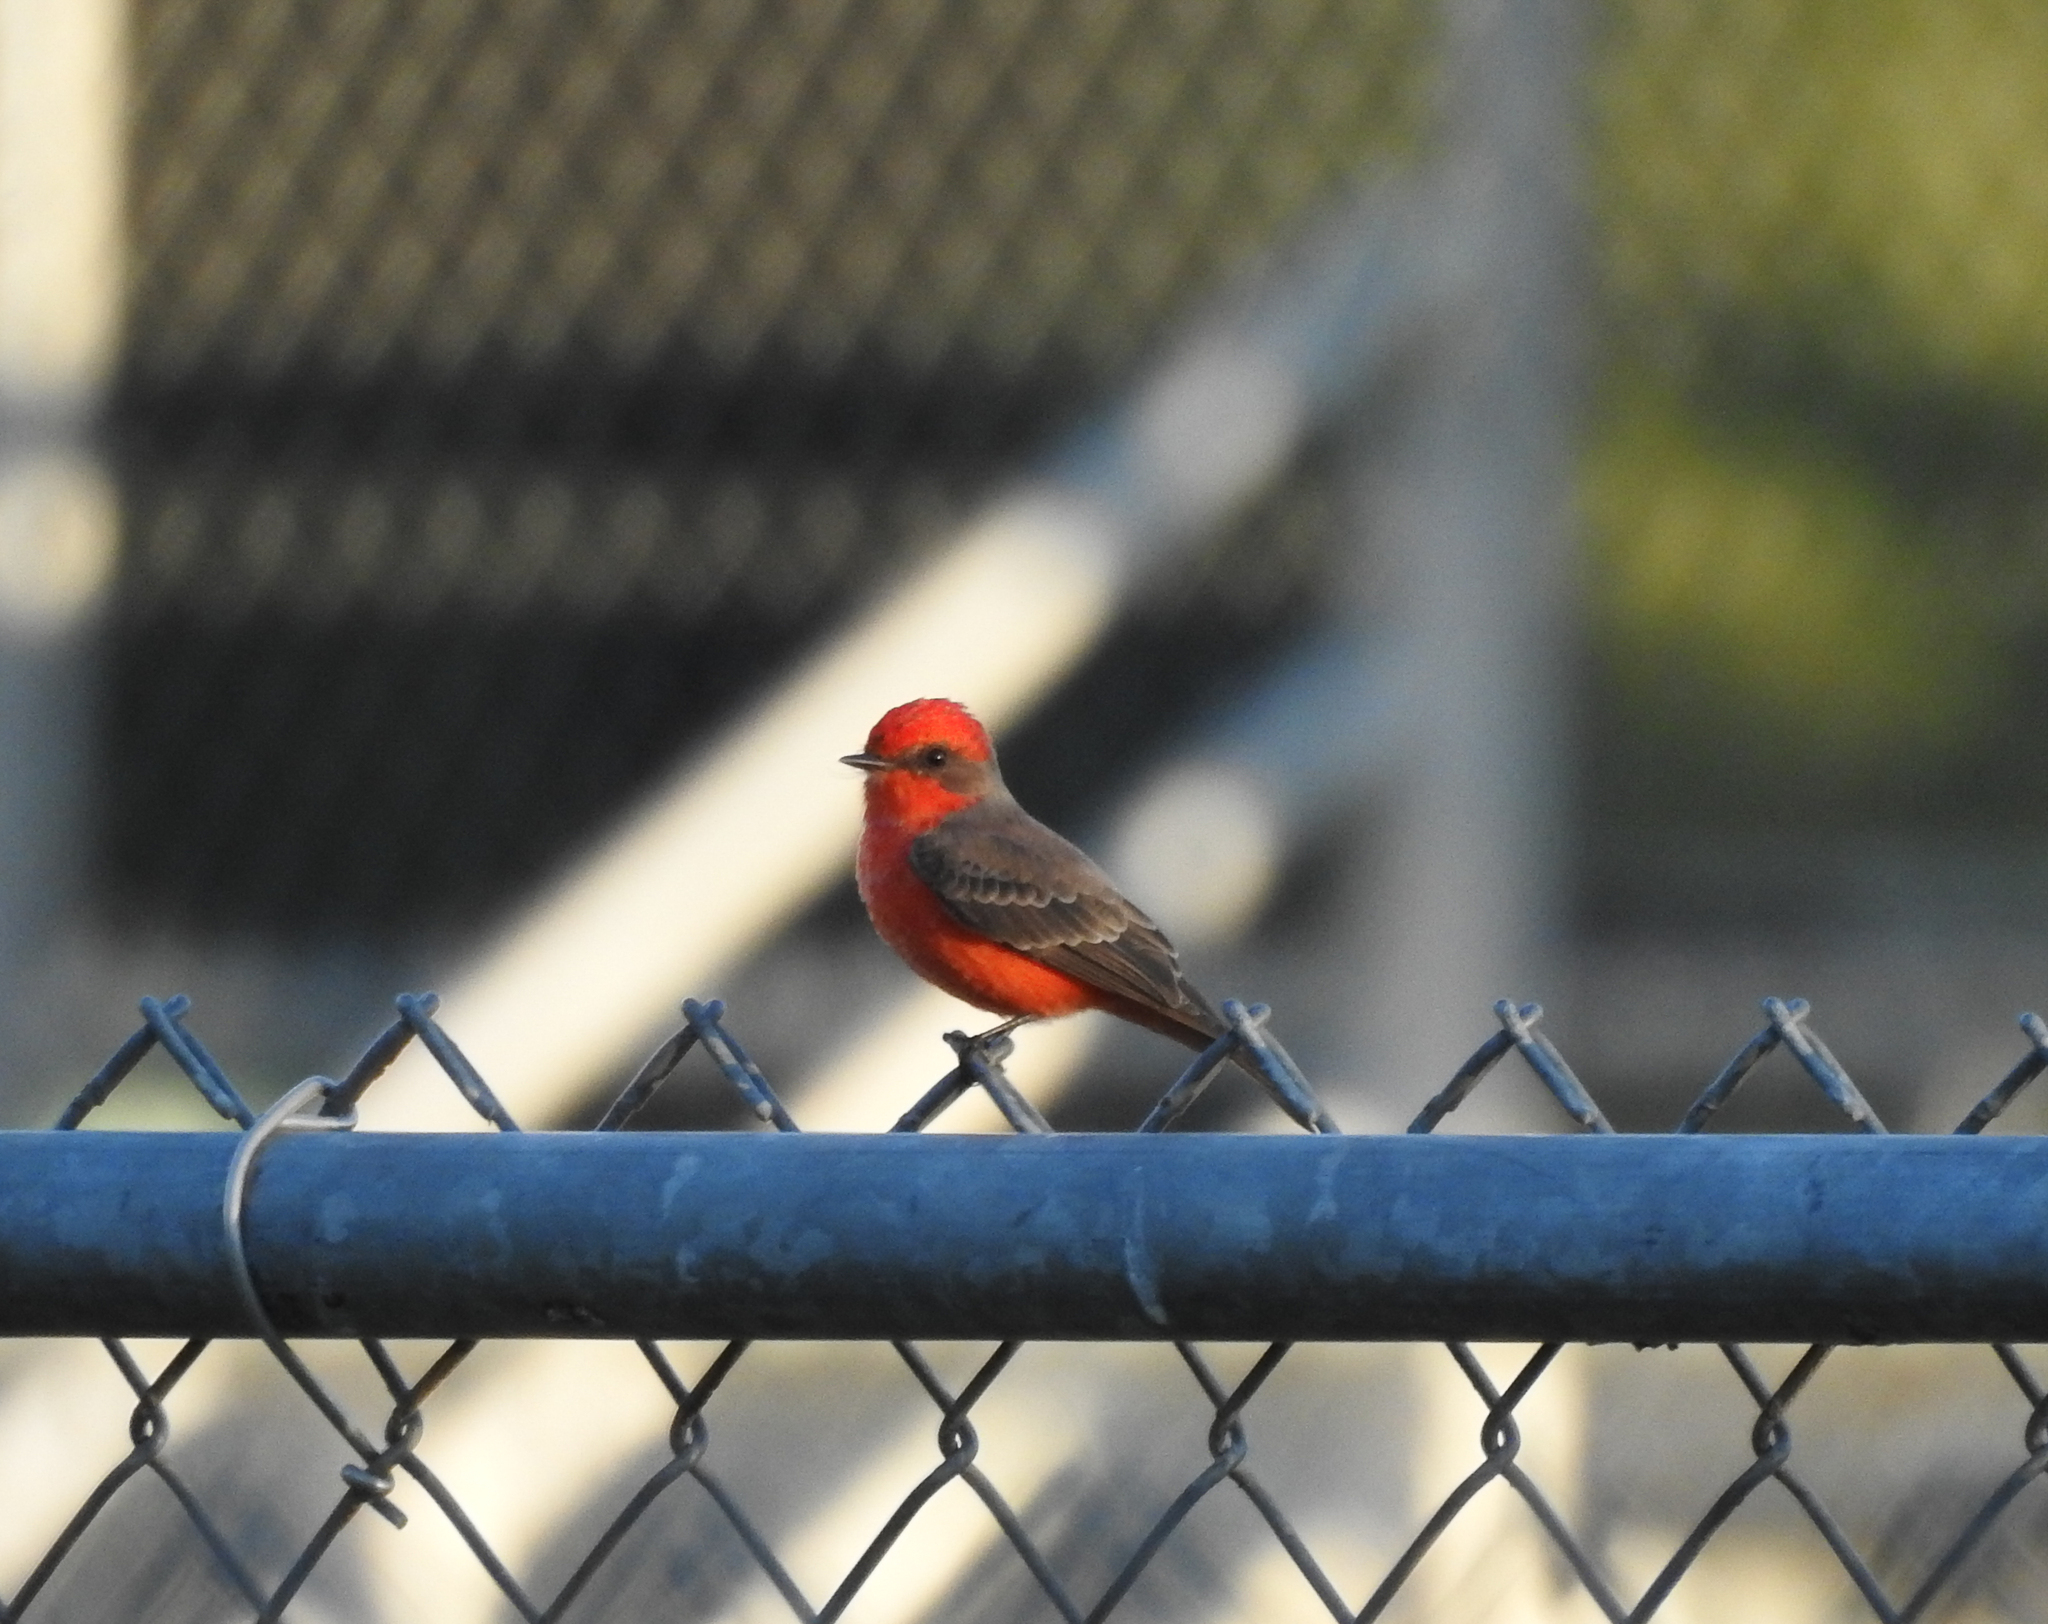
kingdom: Animalia
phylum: Chordata
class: Aves
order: Passeriformes
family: Tyrannidae
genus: Pyrocephalus
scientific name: Pyrocephalus rubinus
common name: Vermilion flycatcher
